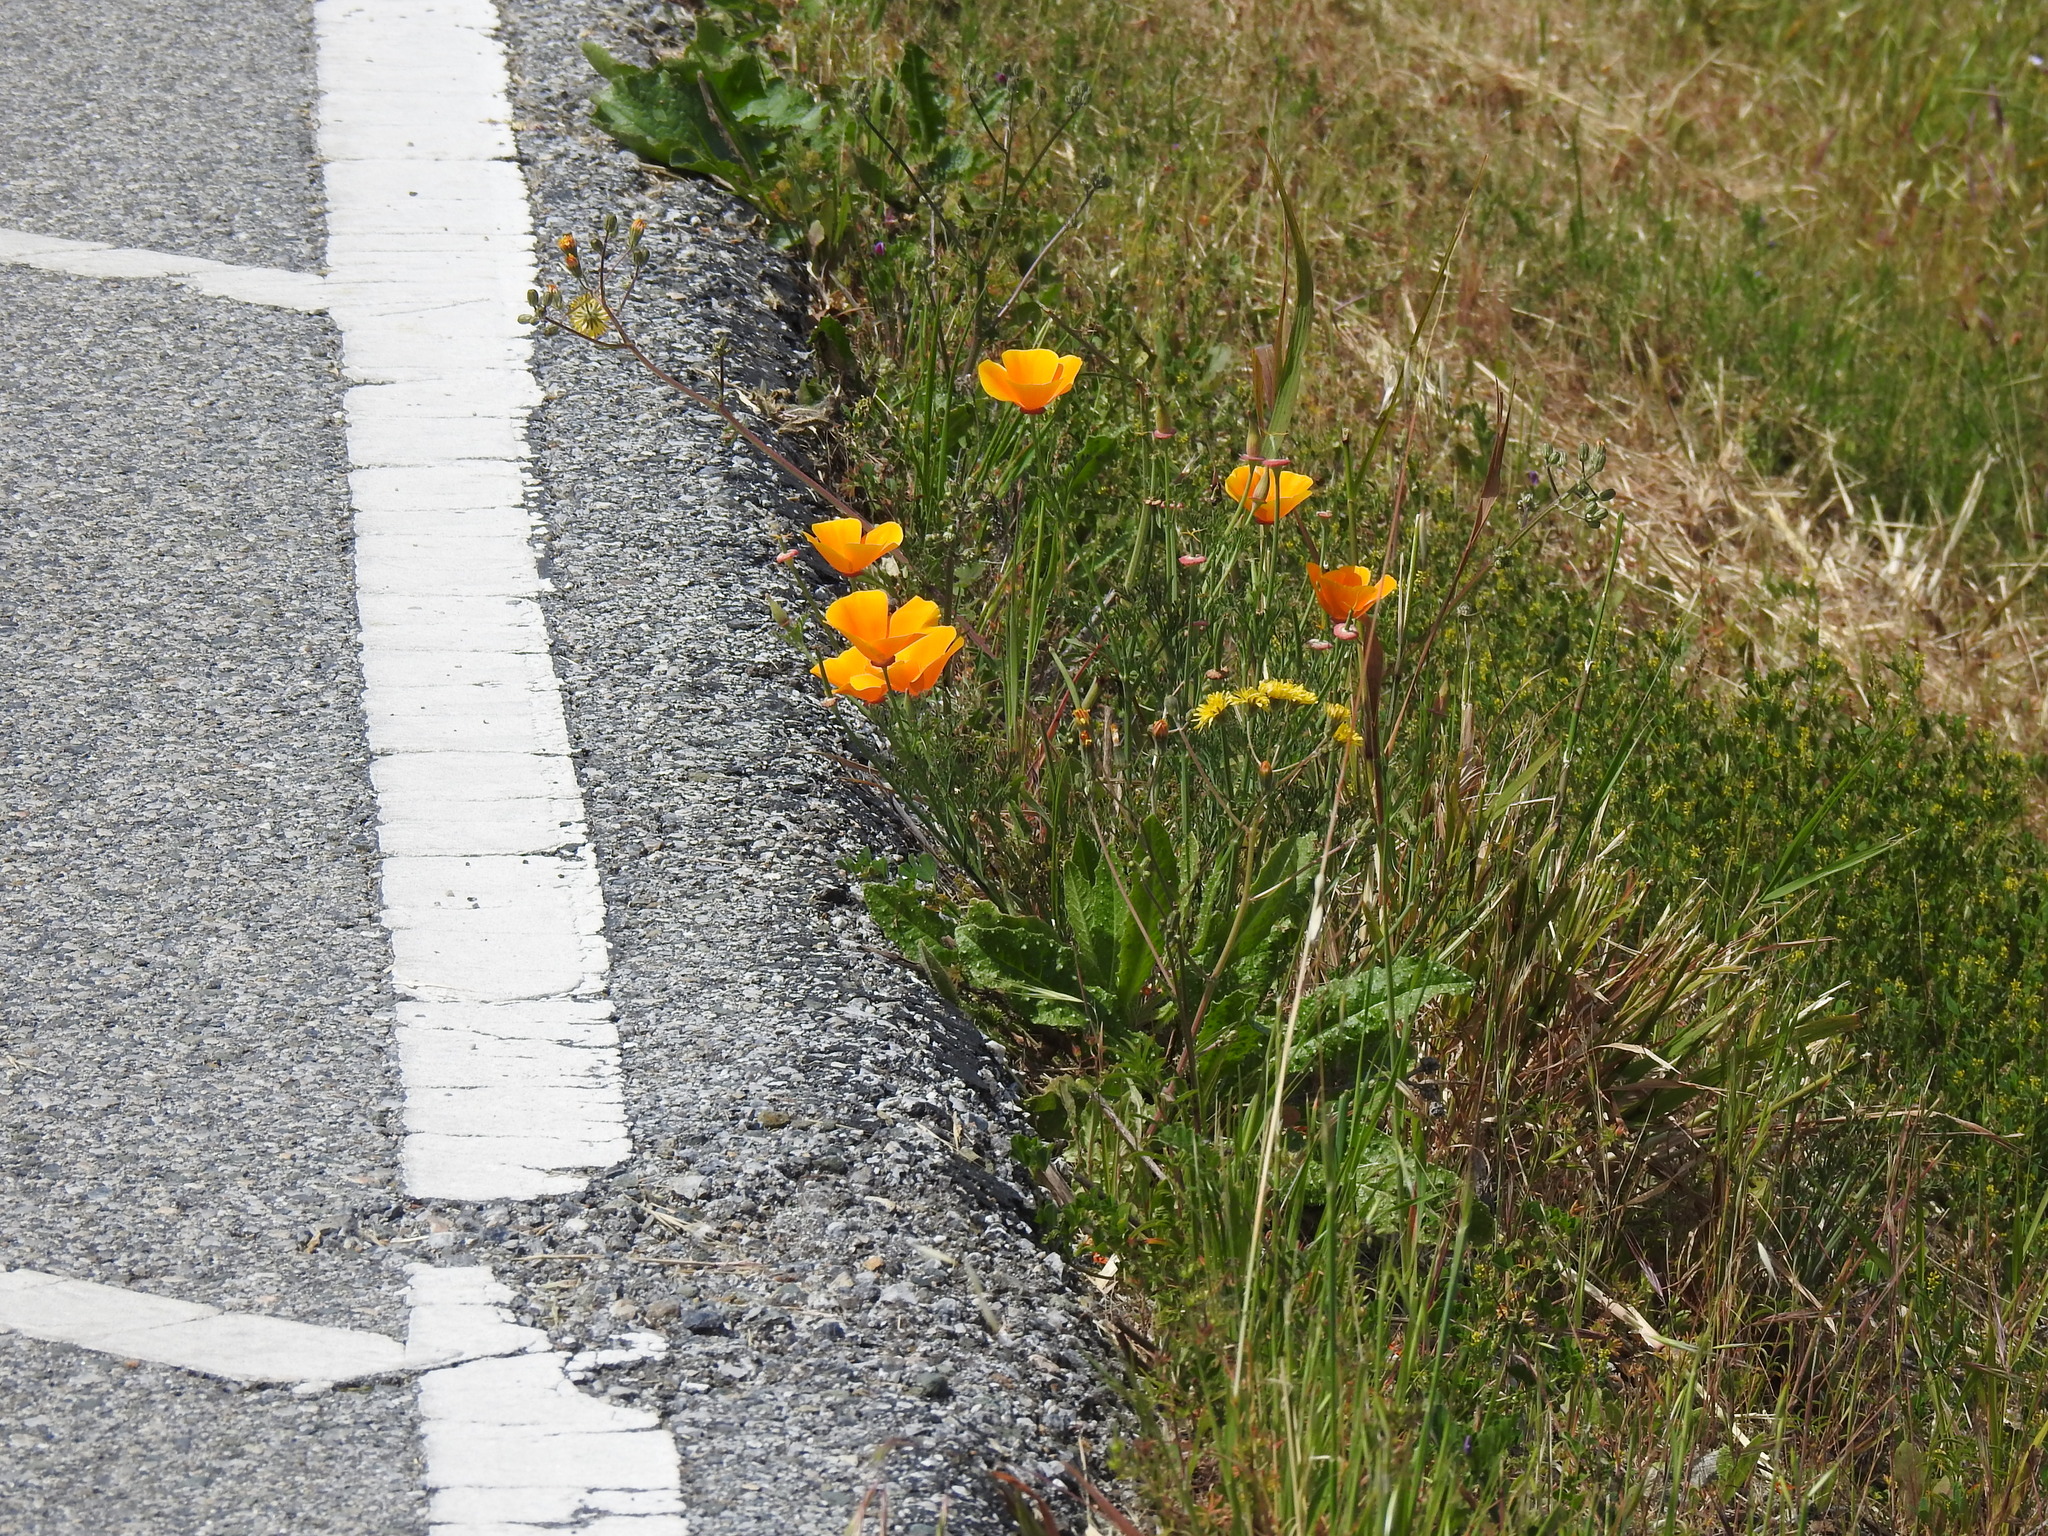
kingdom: Plantae
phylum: Tracheophyta
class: Magnoliopsida
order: Ranunculales
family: Papaveraceae
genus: Eschscholzia
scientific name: Eschscholzia californica
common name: California poppy
